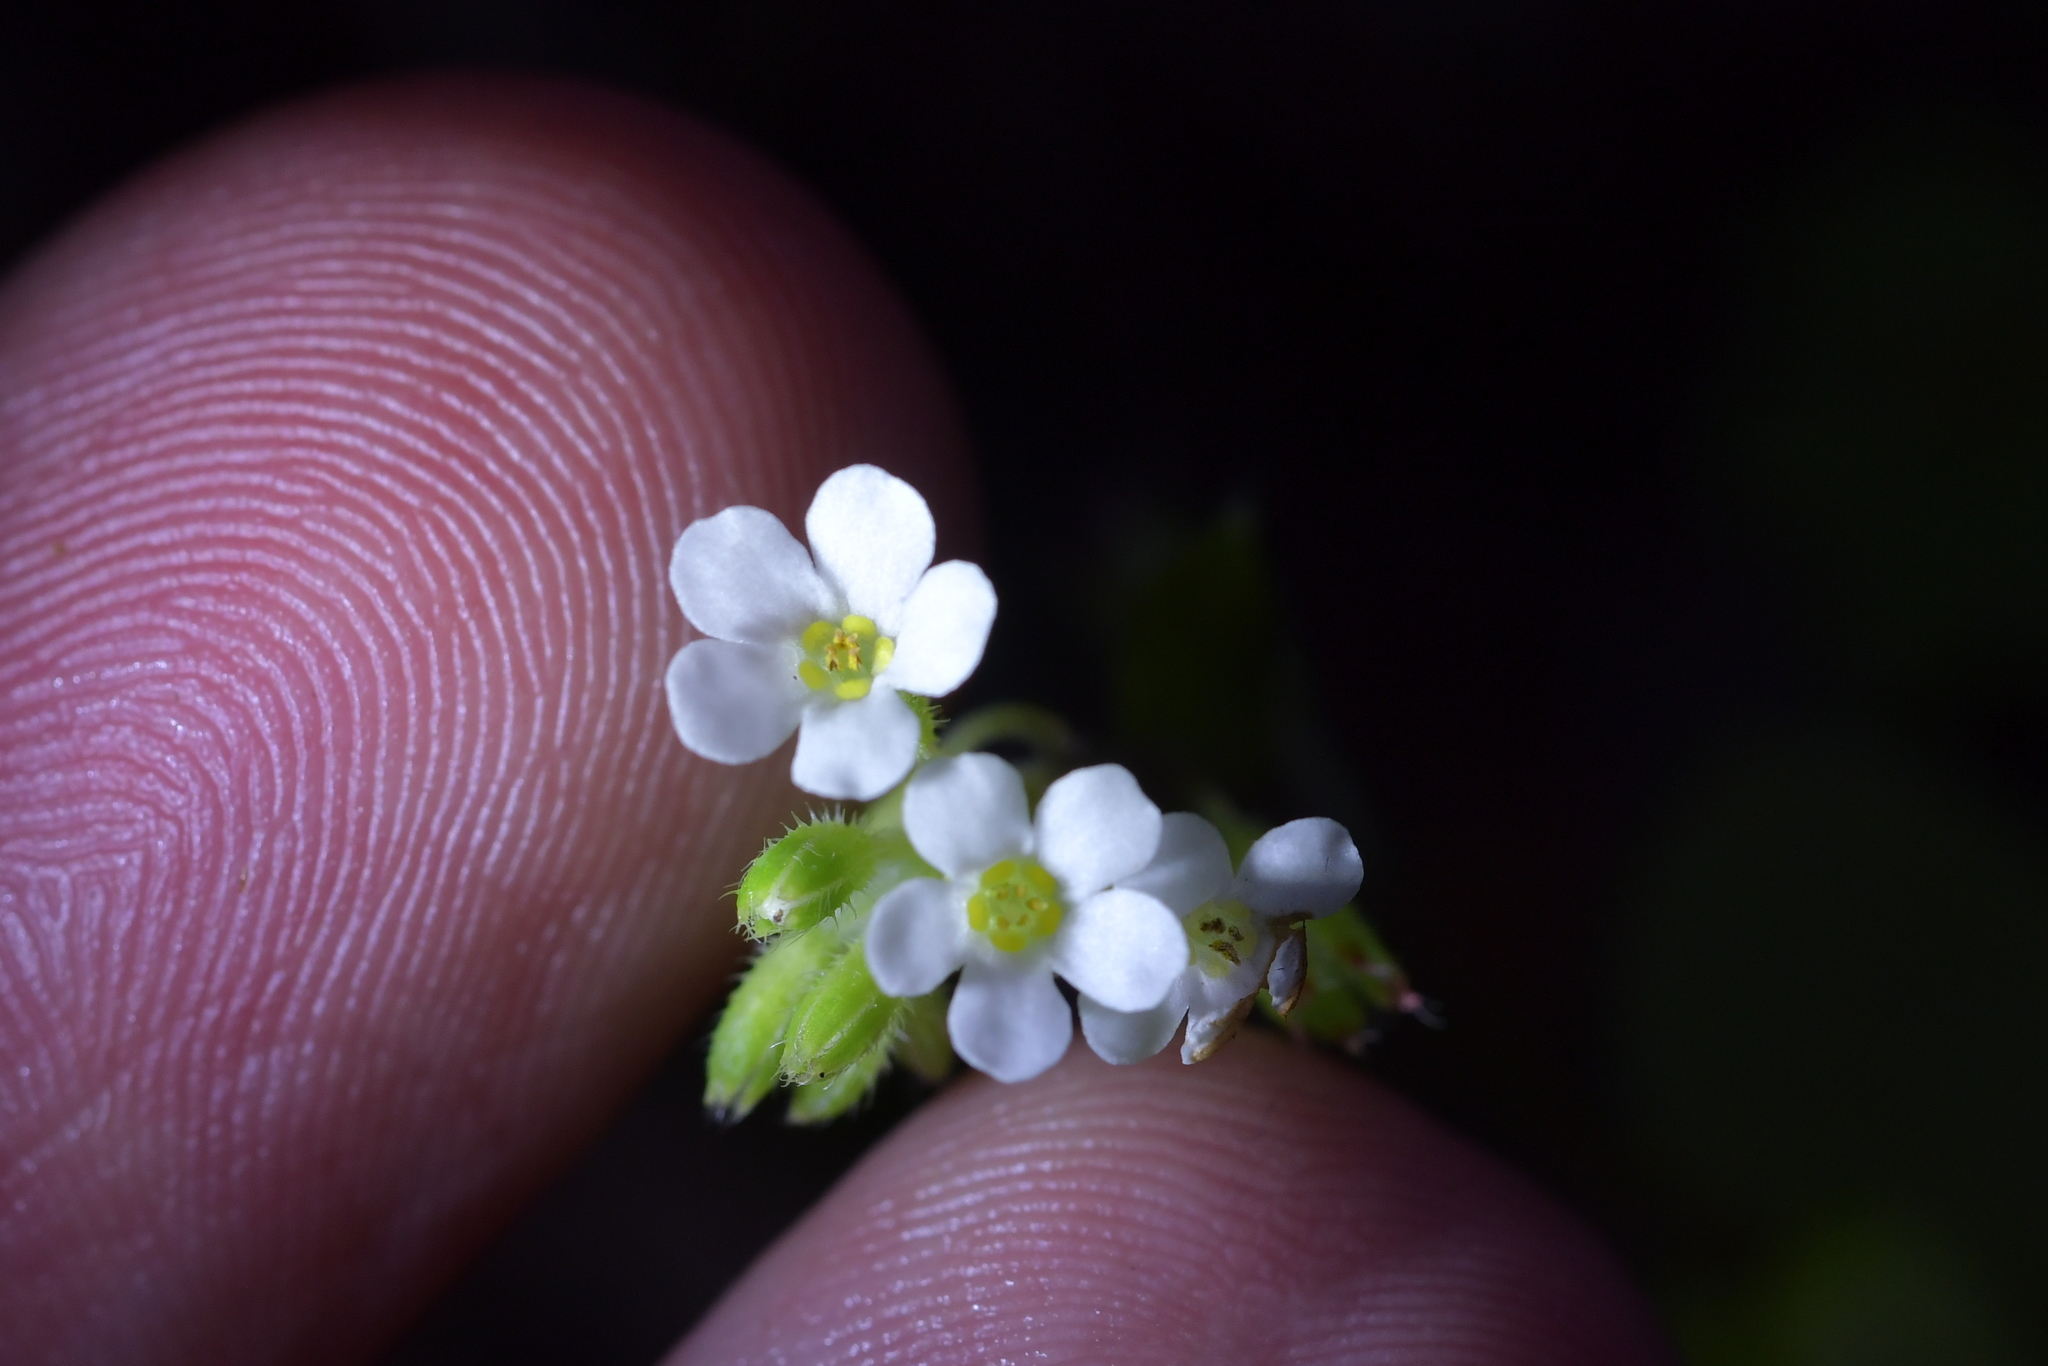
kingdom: Plantae
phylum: Tracheophyta
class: Magnoliopsida
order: Boraginales
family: Boraginaceae
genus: Myosotis
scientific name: Myosotis forsteri
